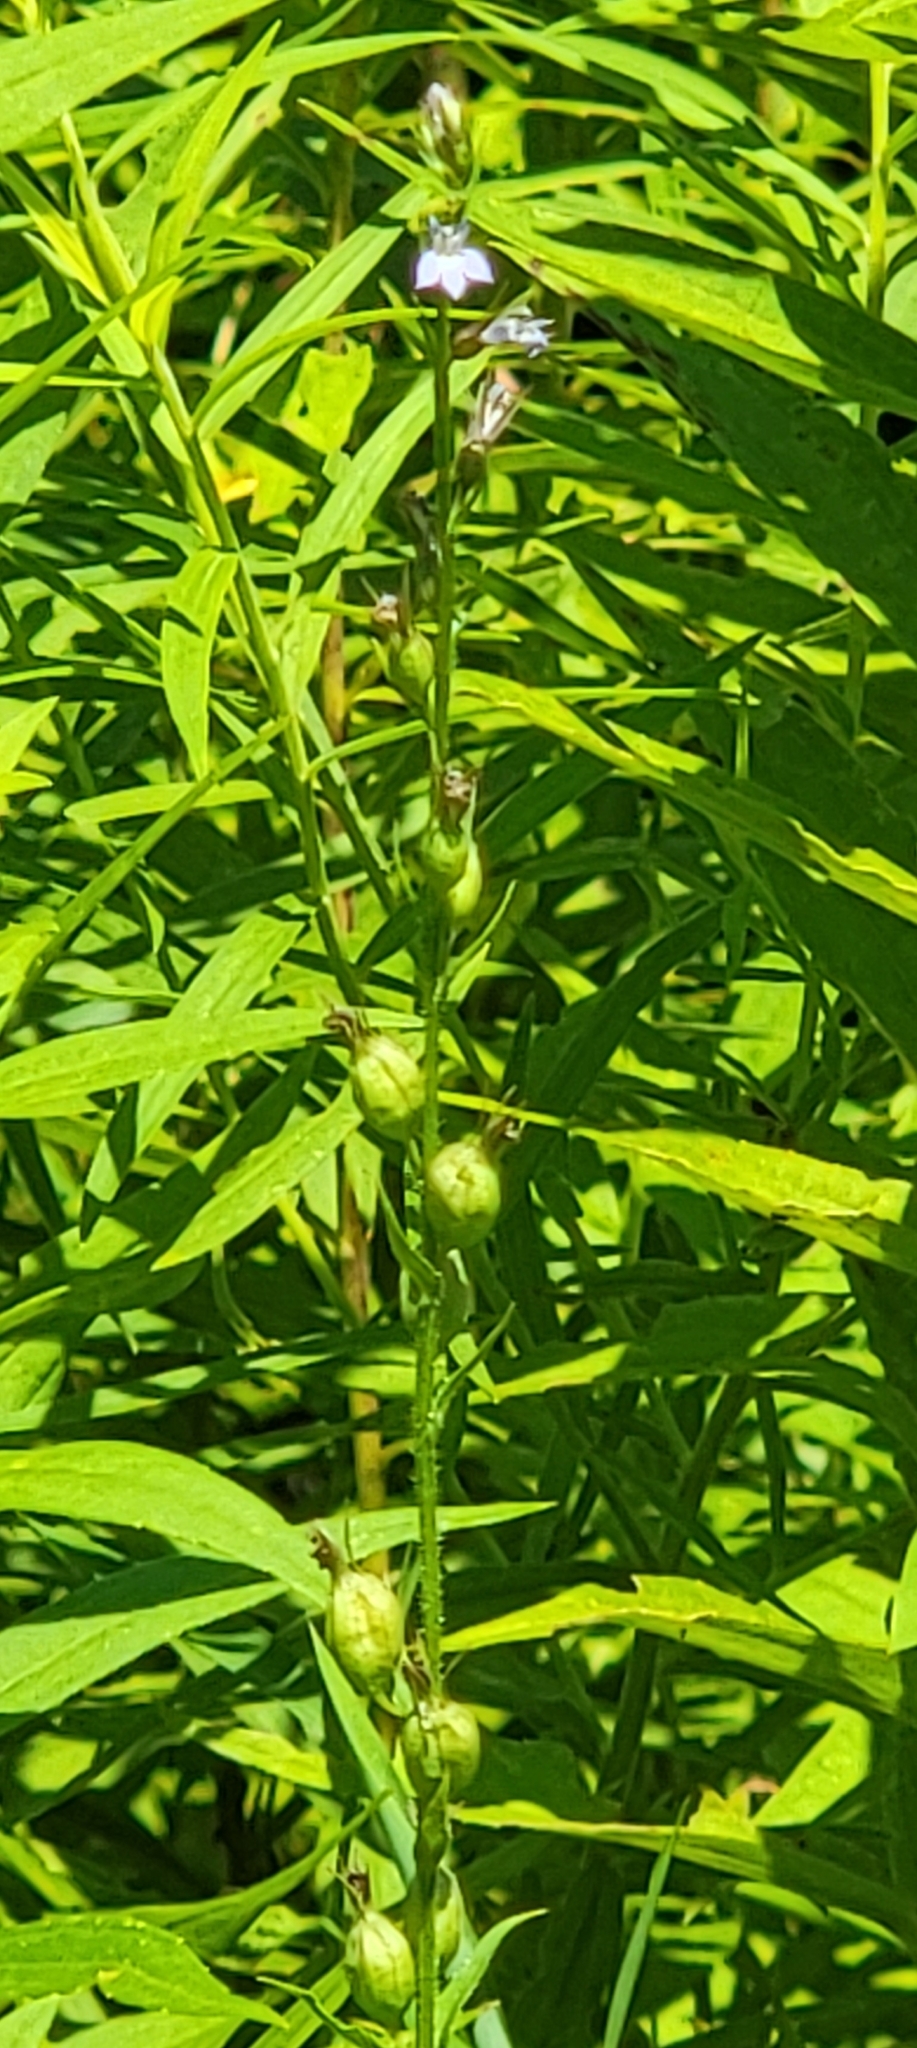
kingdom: Plantae
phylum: Tracheophyta
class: Magnoliopsida
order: Asterales
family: Campanulaceae
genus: Lobelia
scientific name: Lobelia inflata
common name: Indian tobacco
